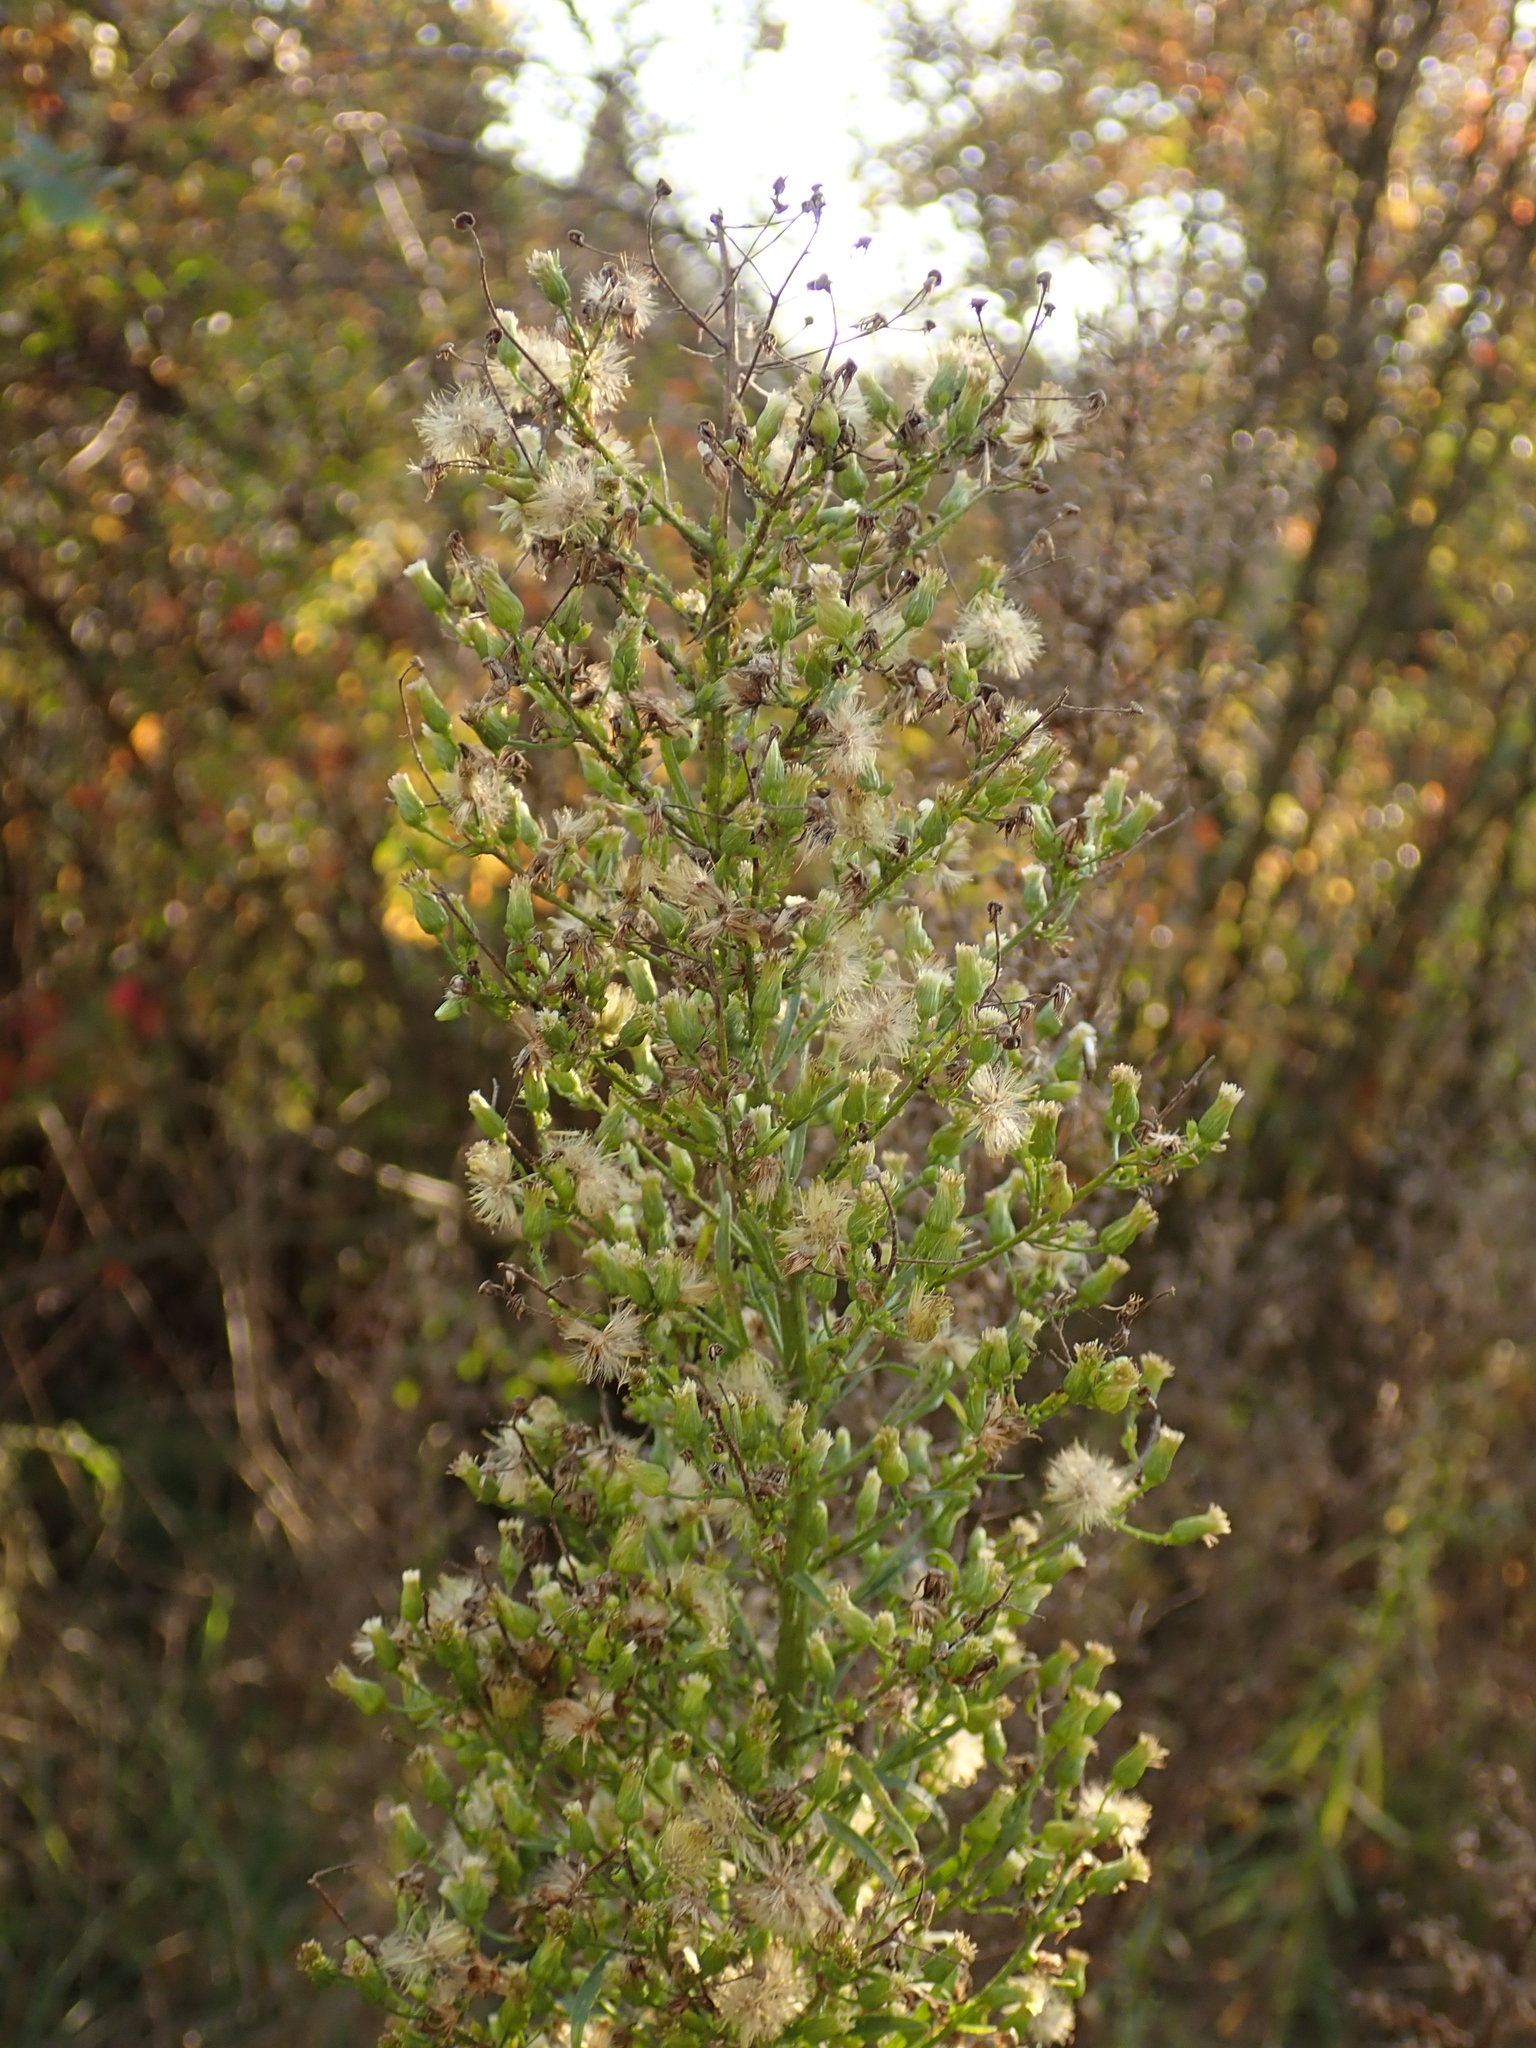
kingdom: Plantae
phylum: Tracheophyta
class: Magnoliopsida
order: Asterales
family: Asteraceae
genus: Erigeron
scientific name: Erigeron canadensis
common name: Canadian fleabane
